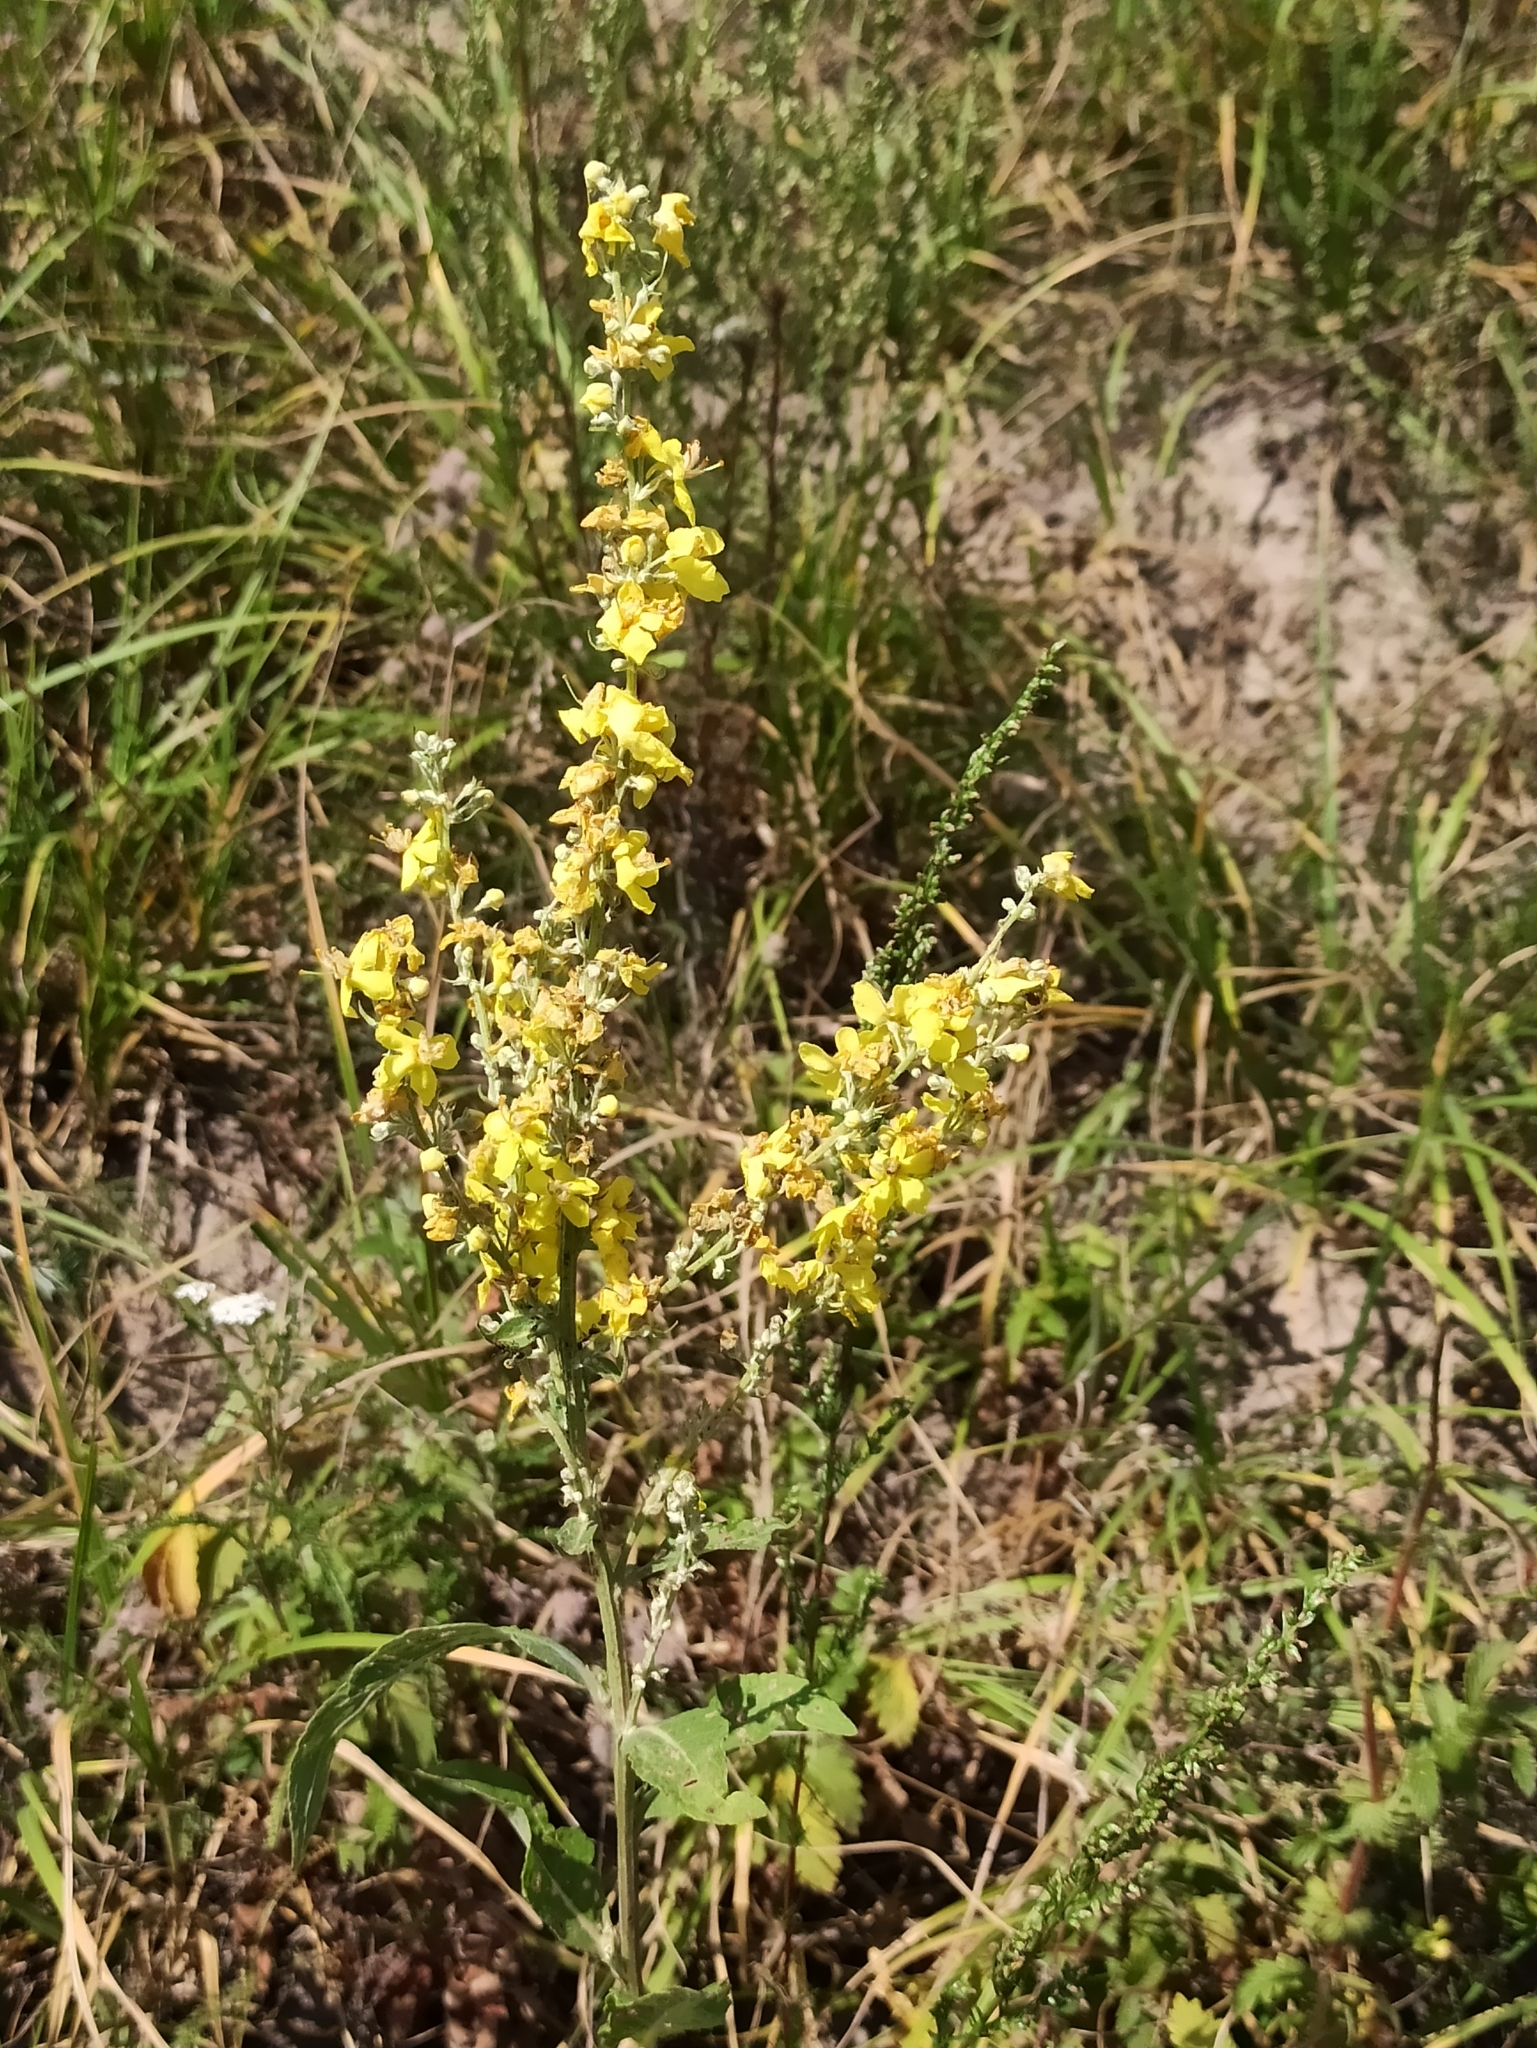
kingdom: Plantae
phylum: Tracheophyta
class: Magnoliopsida
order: Lamiales
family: Scrophulariaceae
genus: Verbascum
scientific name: Verbascum lychnitis
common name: White mullein
